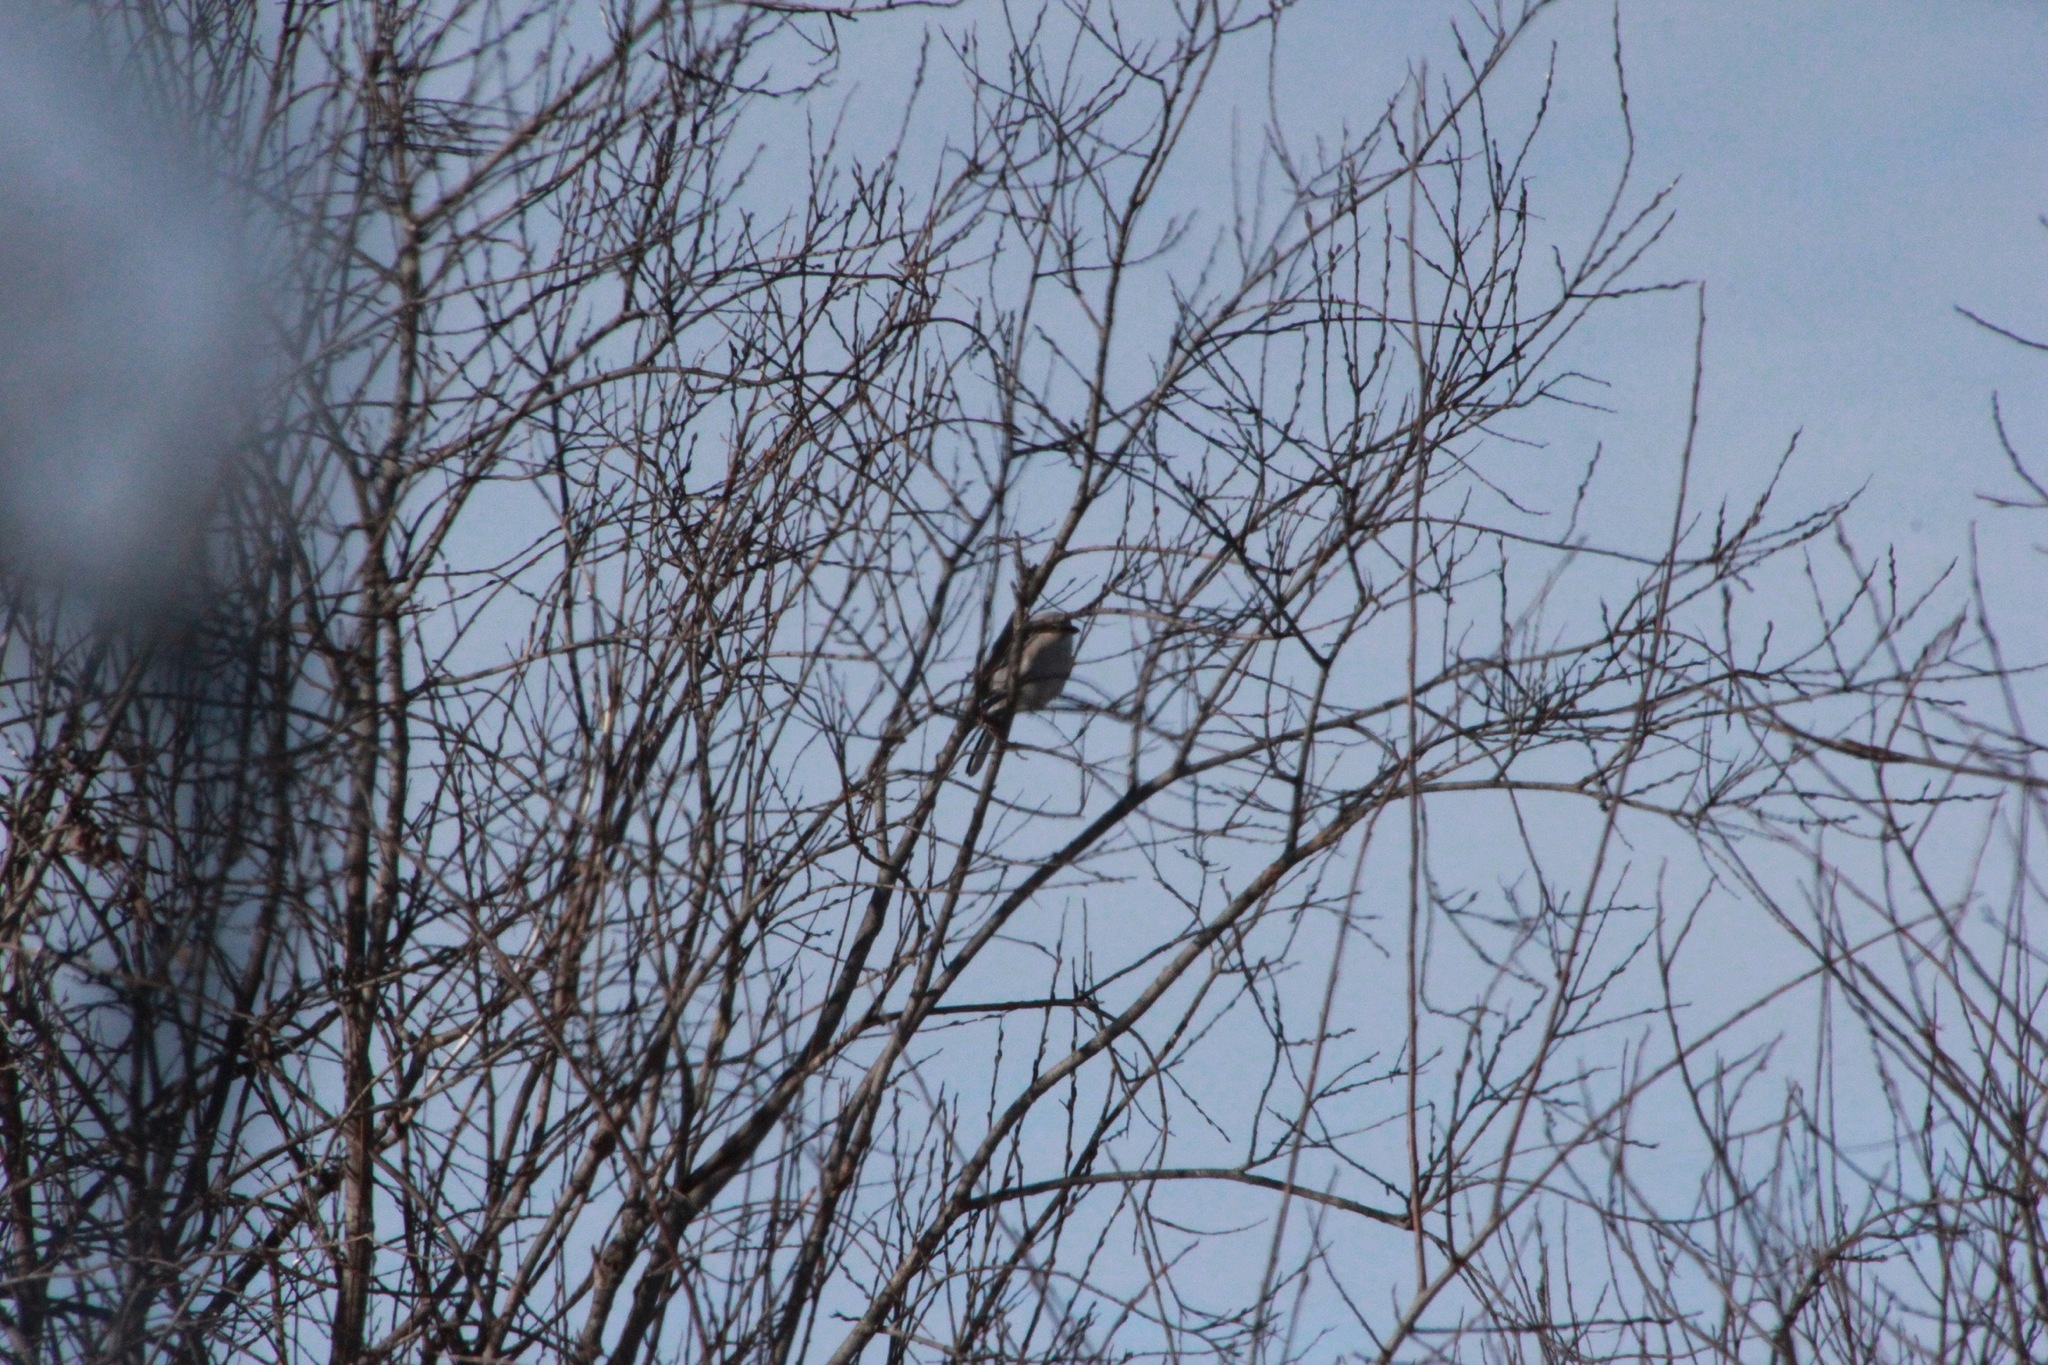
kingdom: Animalia
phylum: Chordata
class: Aves
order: Passeriformes
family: Laniidae
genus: Lanius
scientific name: Lanius borealis
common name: Northern shrike
